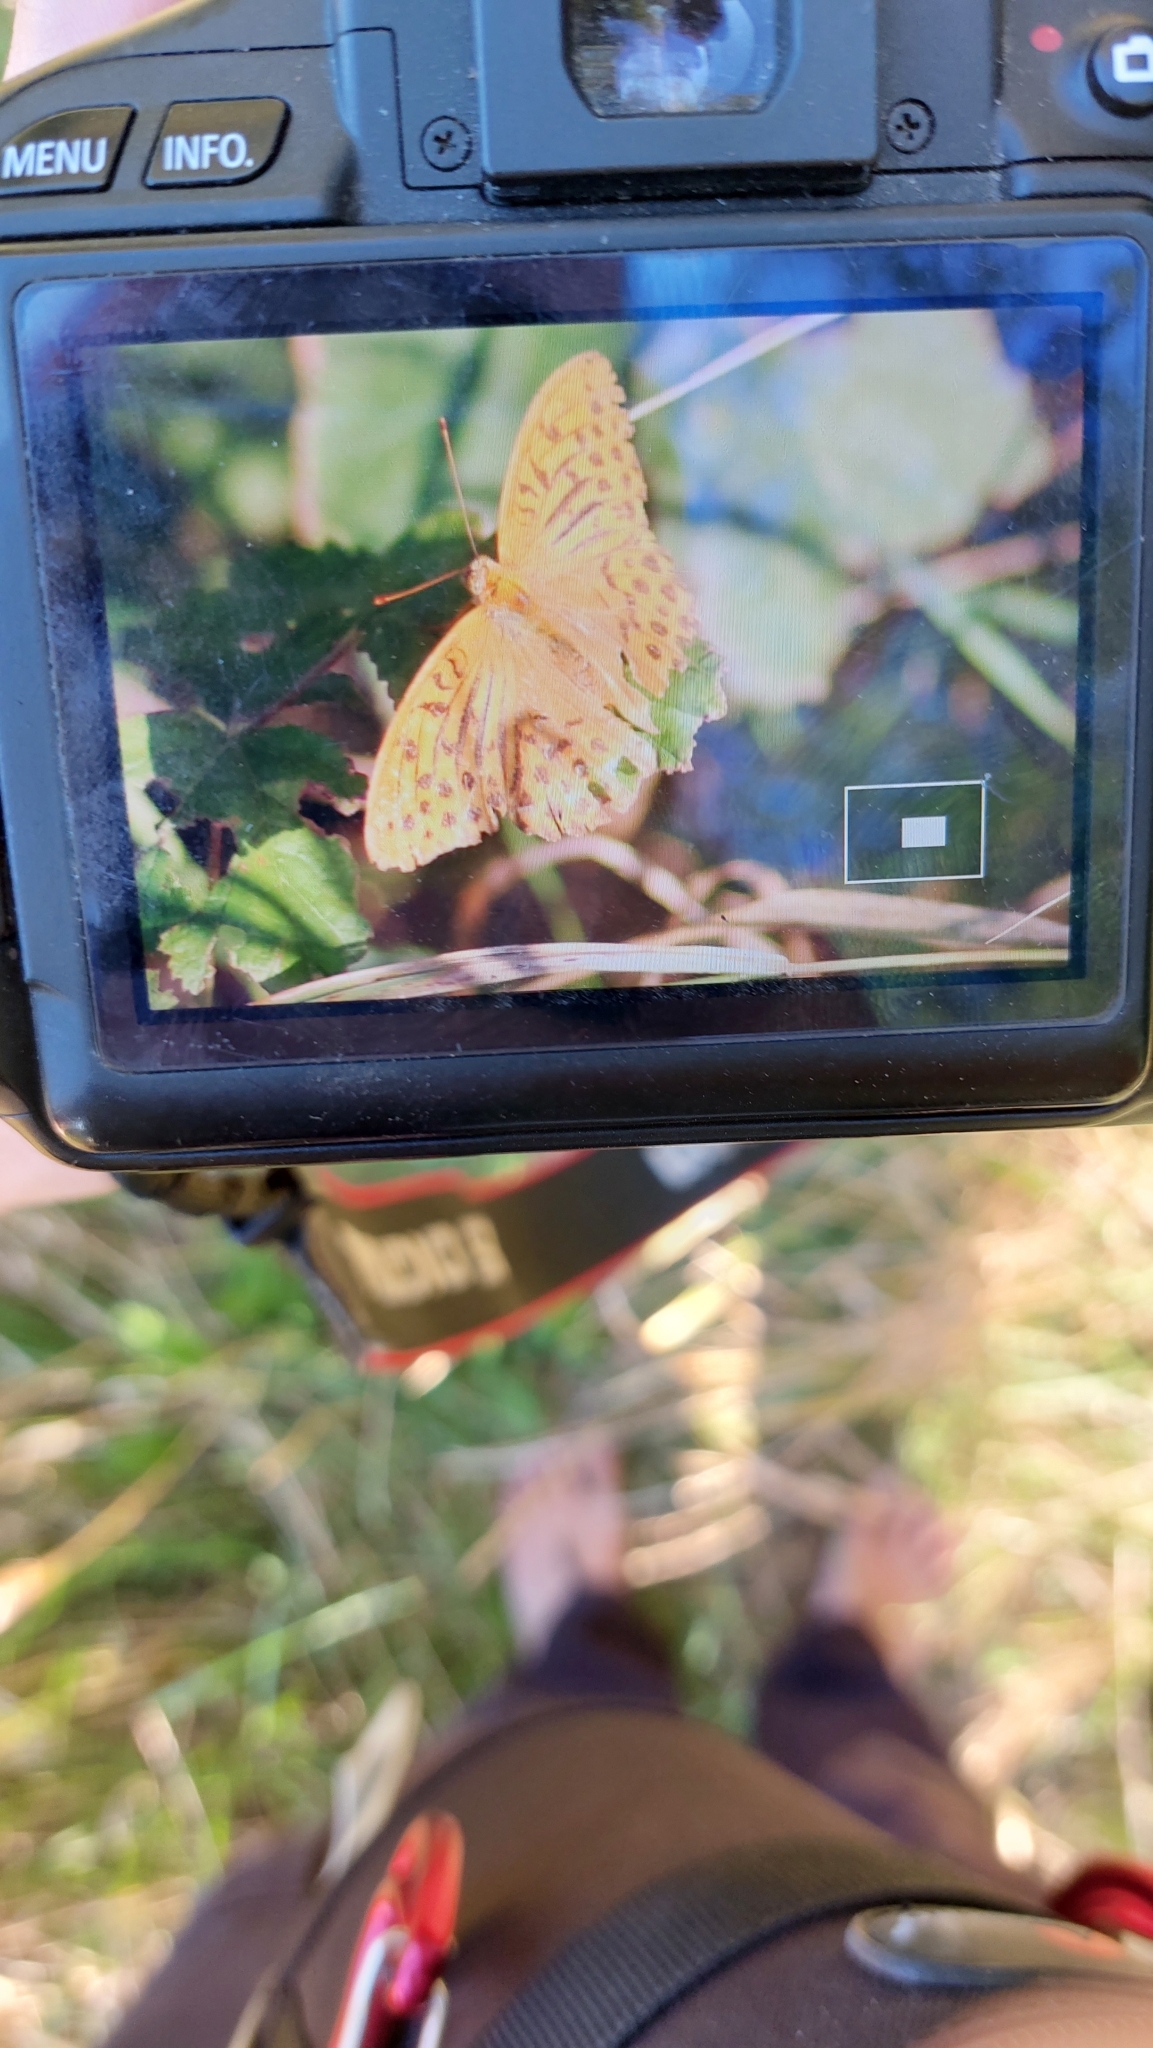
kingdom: Animalia
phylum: Arthropoda
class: Insecta
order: Lepidoptera
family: Nymphalidae
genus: Argynnis
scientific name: Argynnis paphia
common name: Silver-washed fritillary
